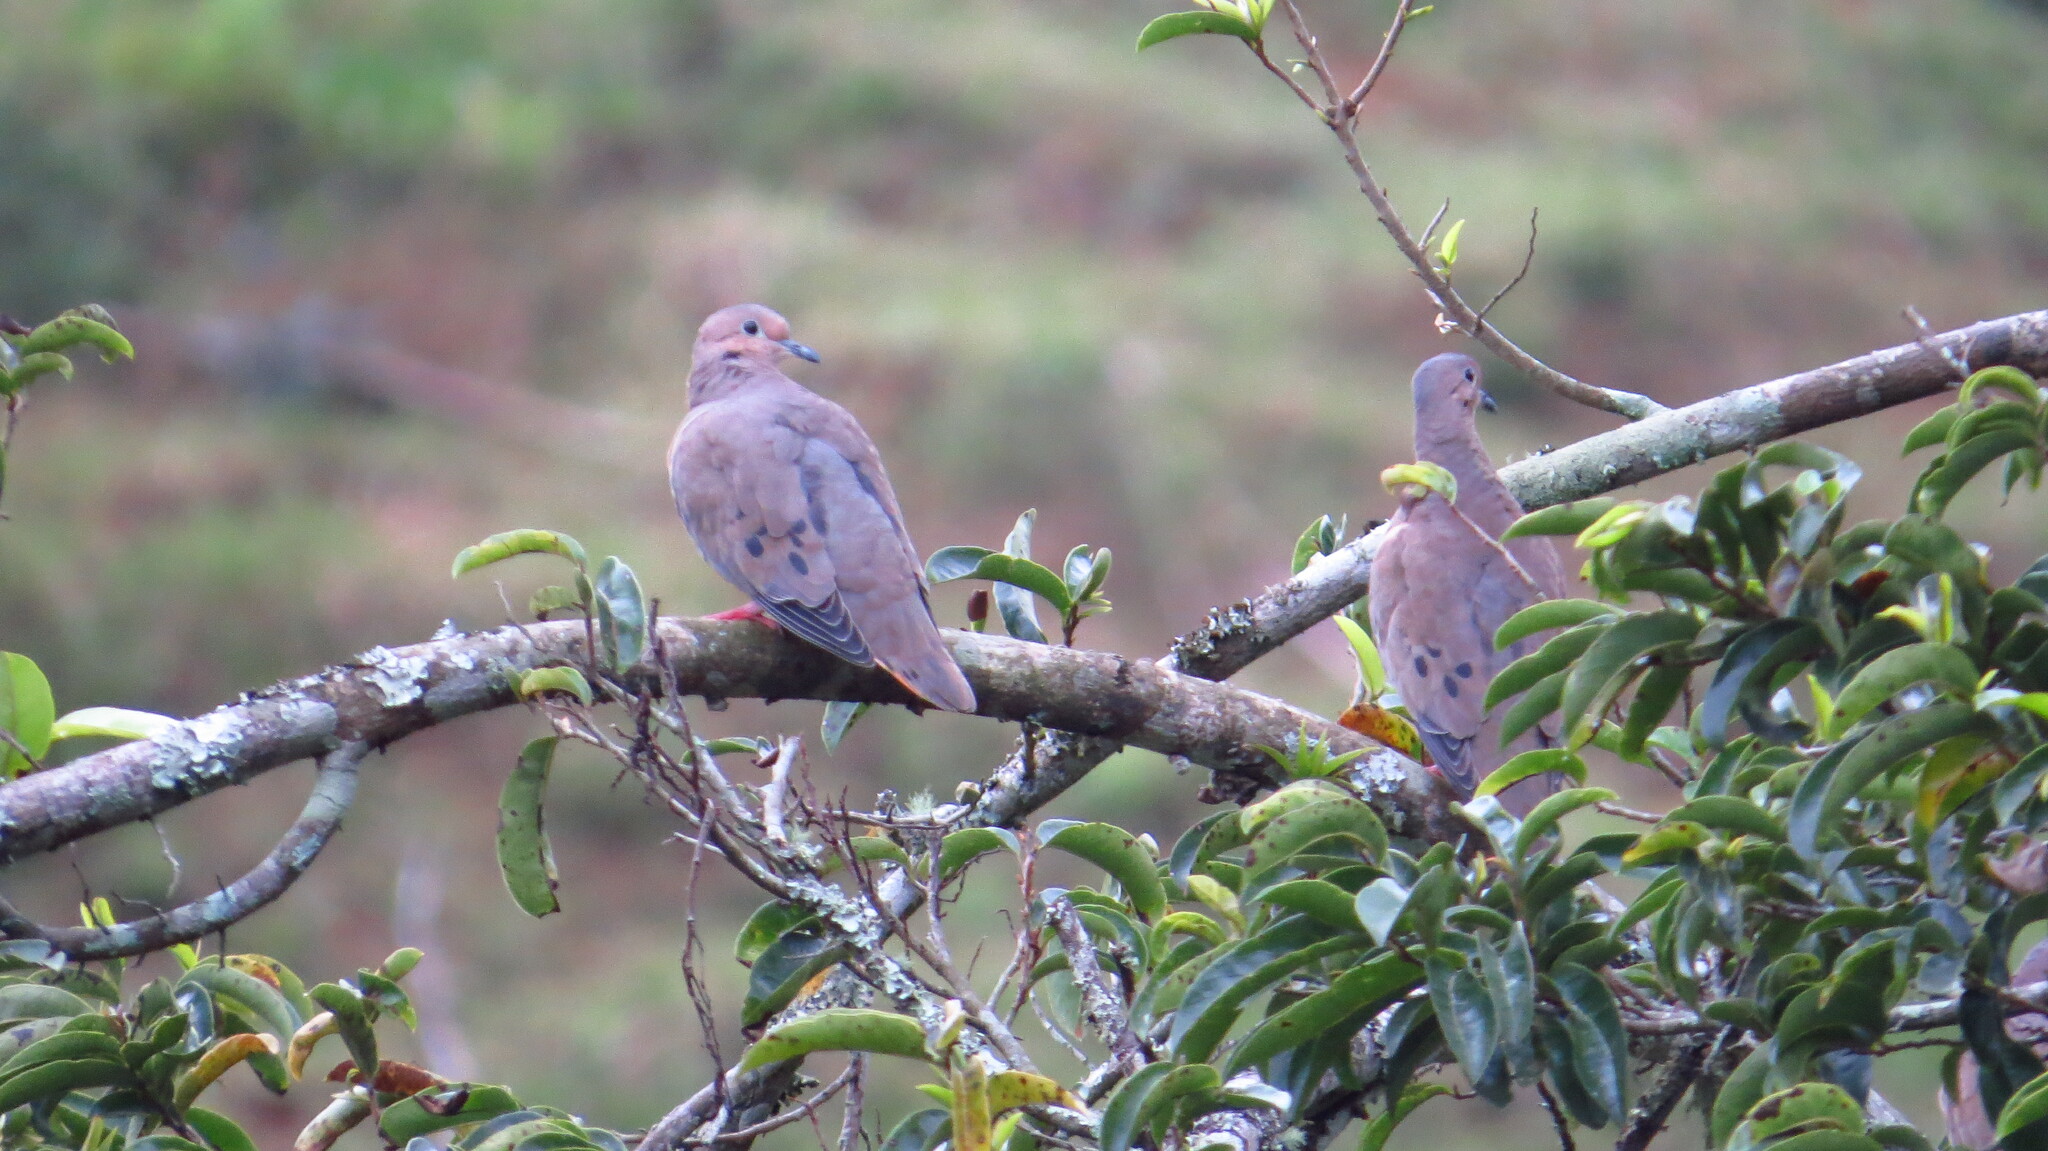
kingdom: Animalia
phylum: Chordata
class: Aves
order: Columbiformes
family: Columbidae
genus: Zenaida
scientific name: Zenaida auriculata
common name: Eared dove
